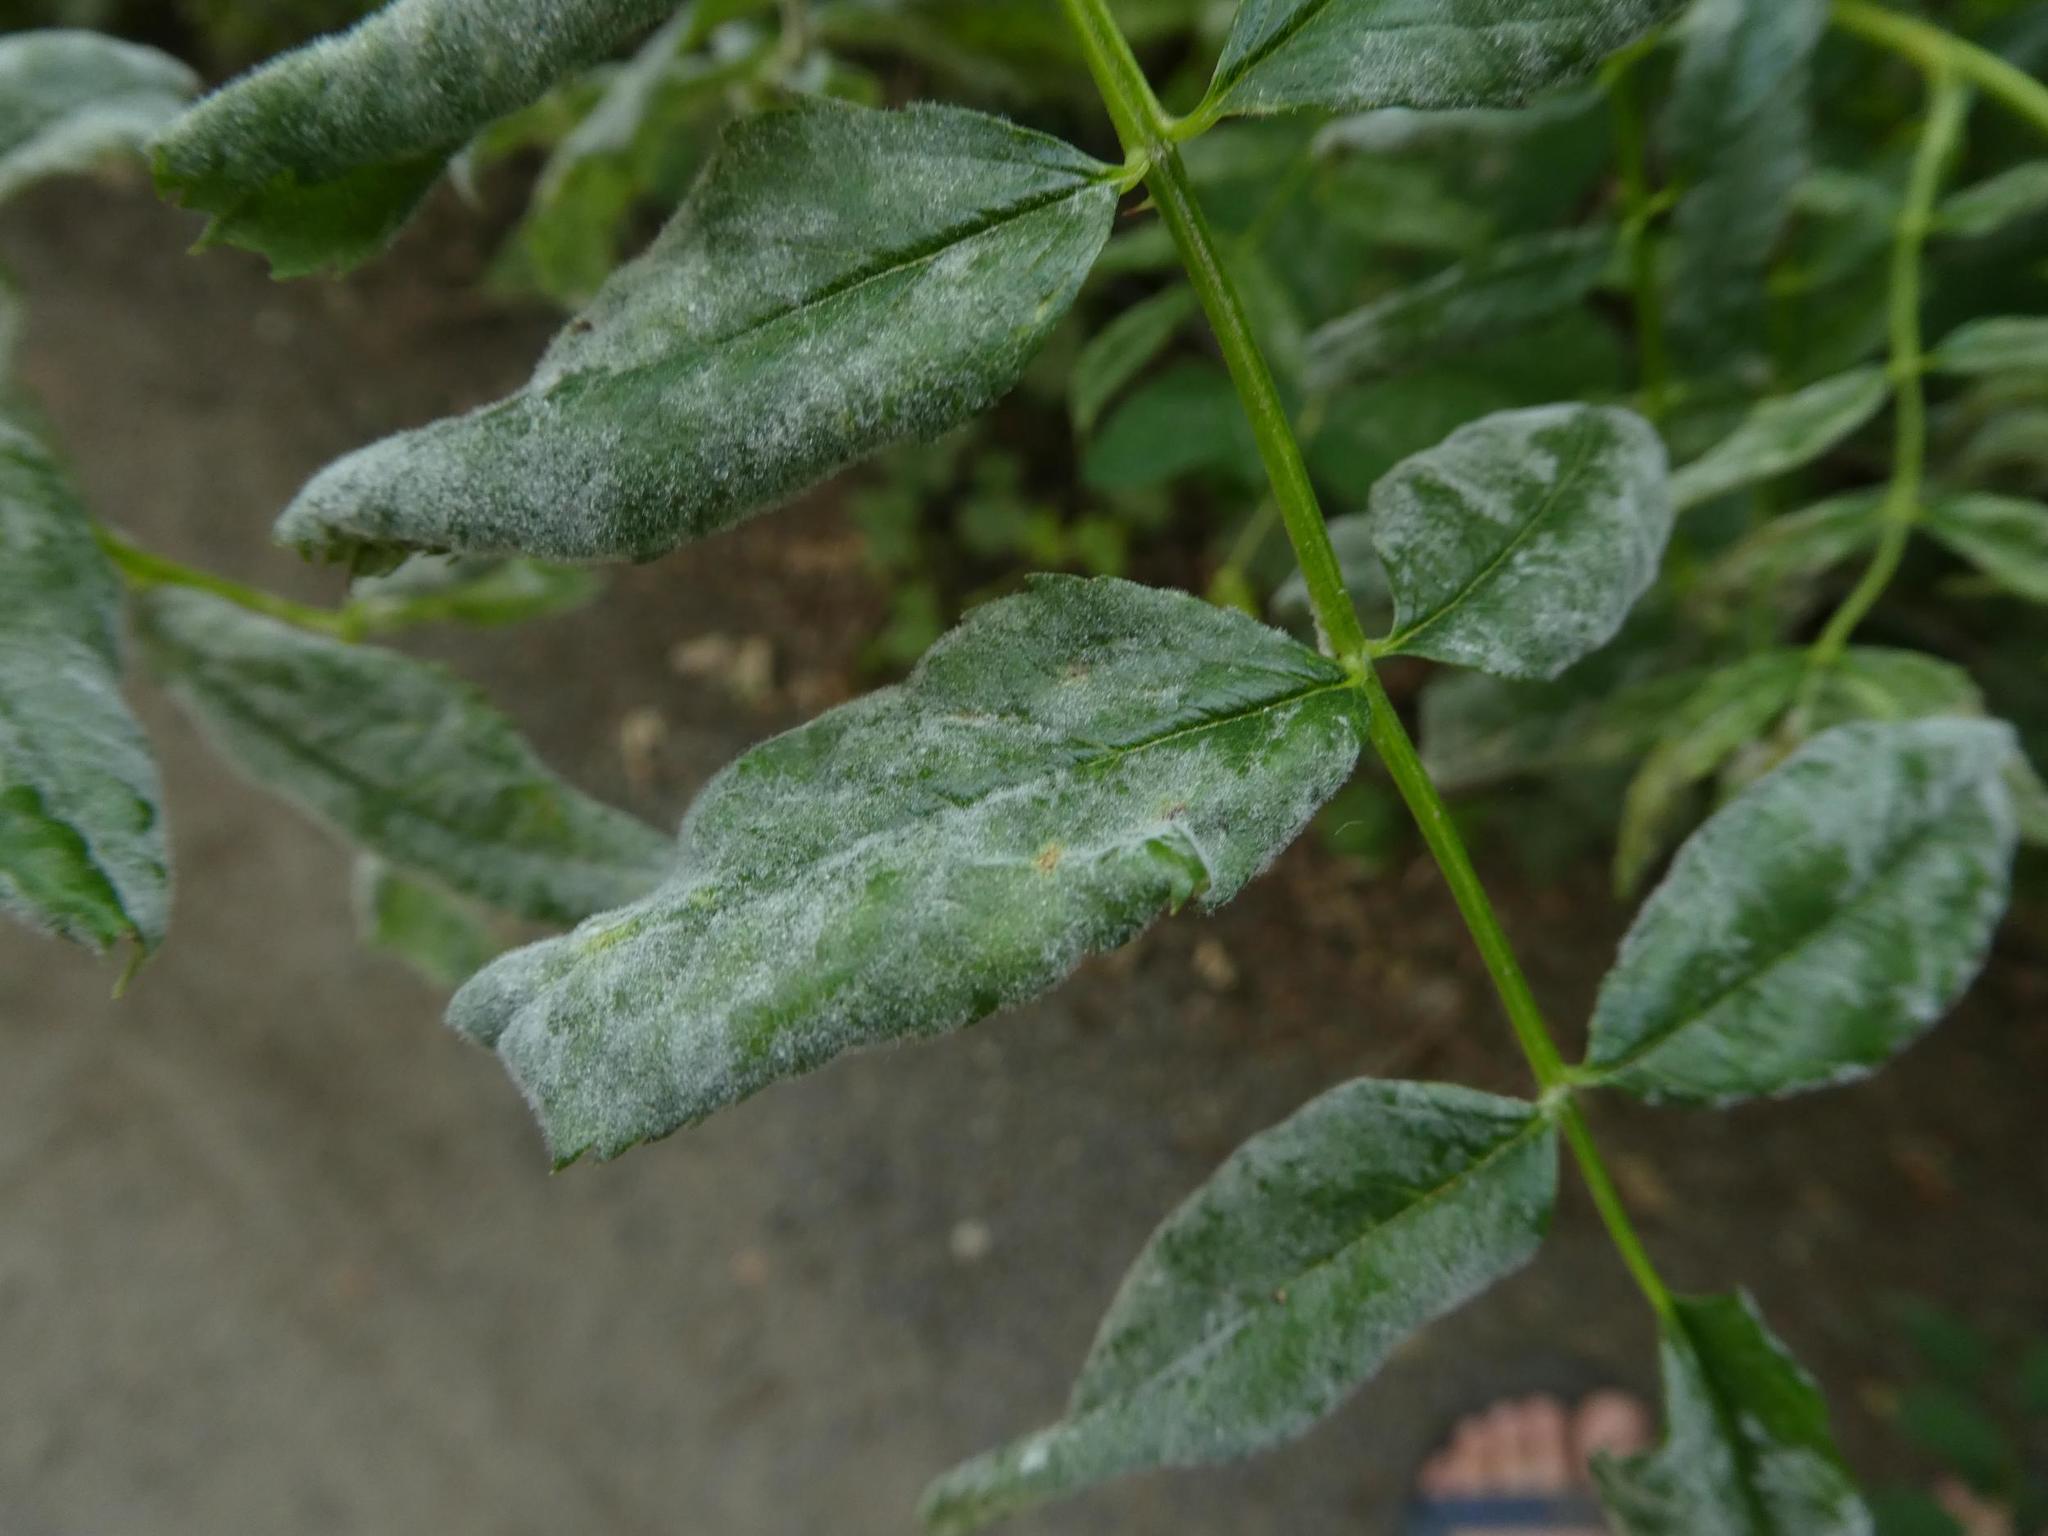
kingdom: Fungi
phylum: Ascomycota
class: Leotiomycetes
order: Helotiales
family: Erysiphaceae
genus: Podosphaera
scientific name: Podosphaera pannosa
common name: Rose mildew
